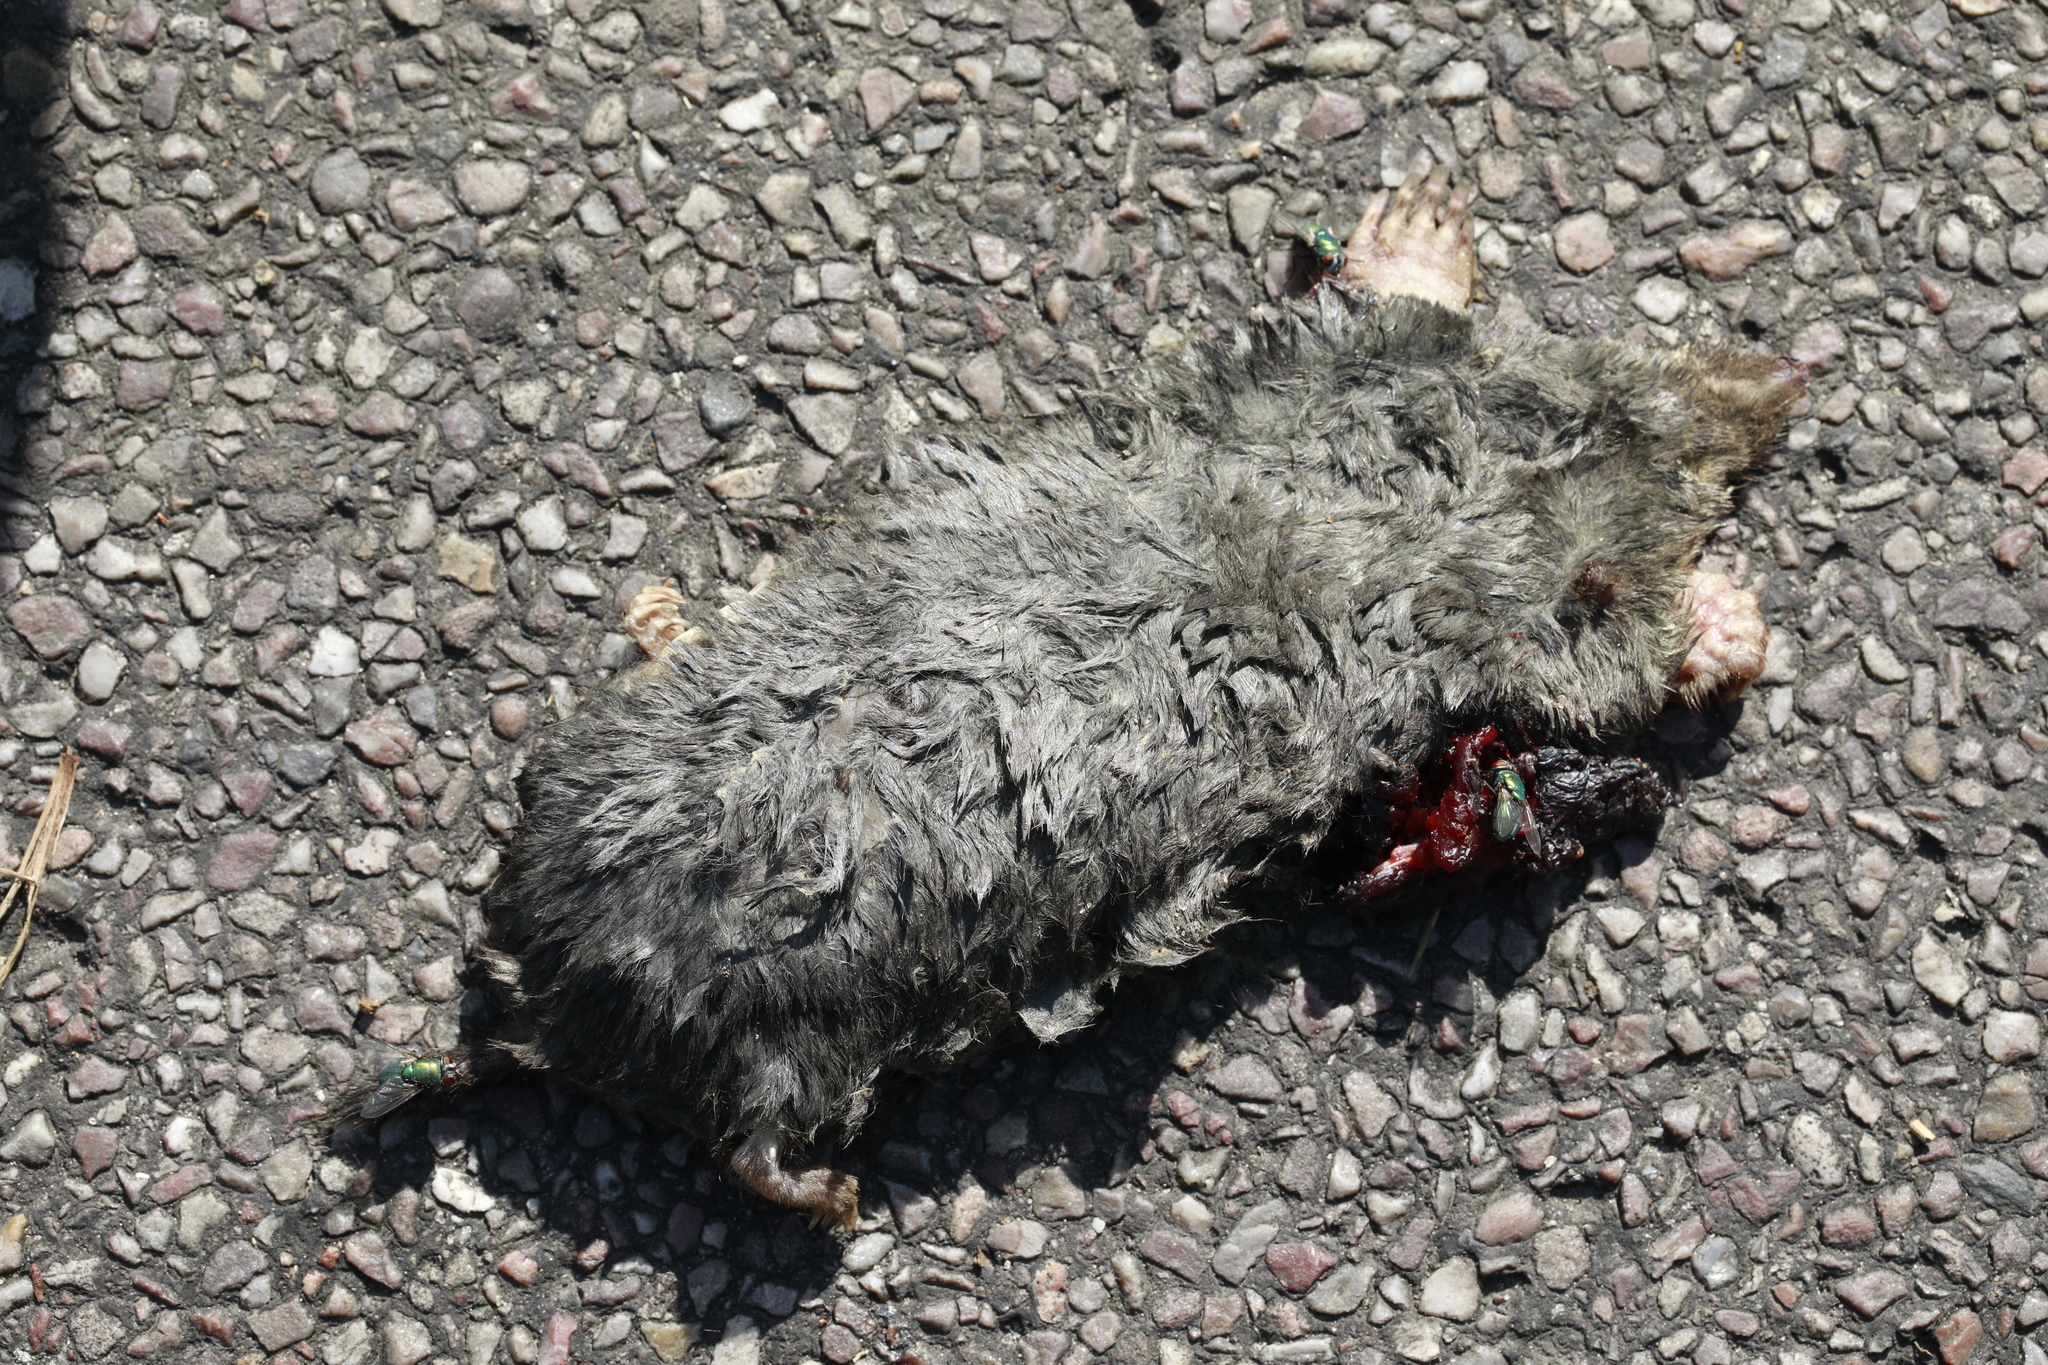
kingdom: Animalia
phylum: Chordata
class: Mammalia
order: Soricomorpha
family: Talpidae
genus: Talpa
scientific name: Talpa europaea
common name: European mole
